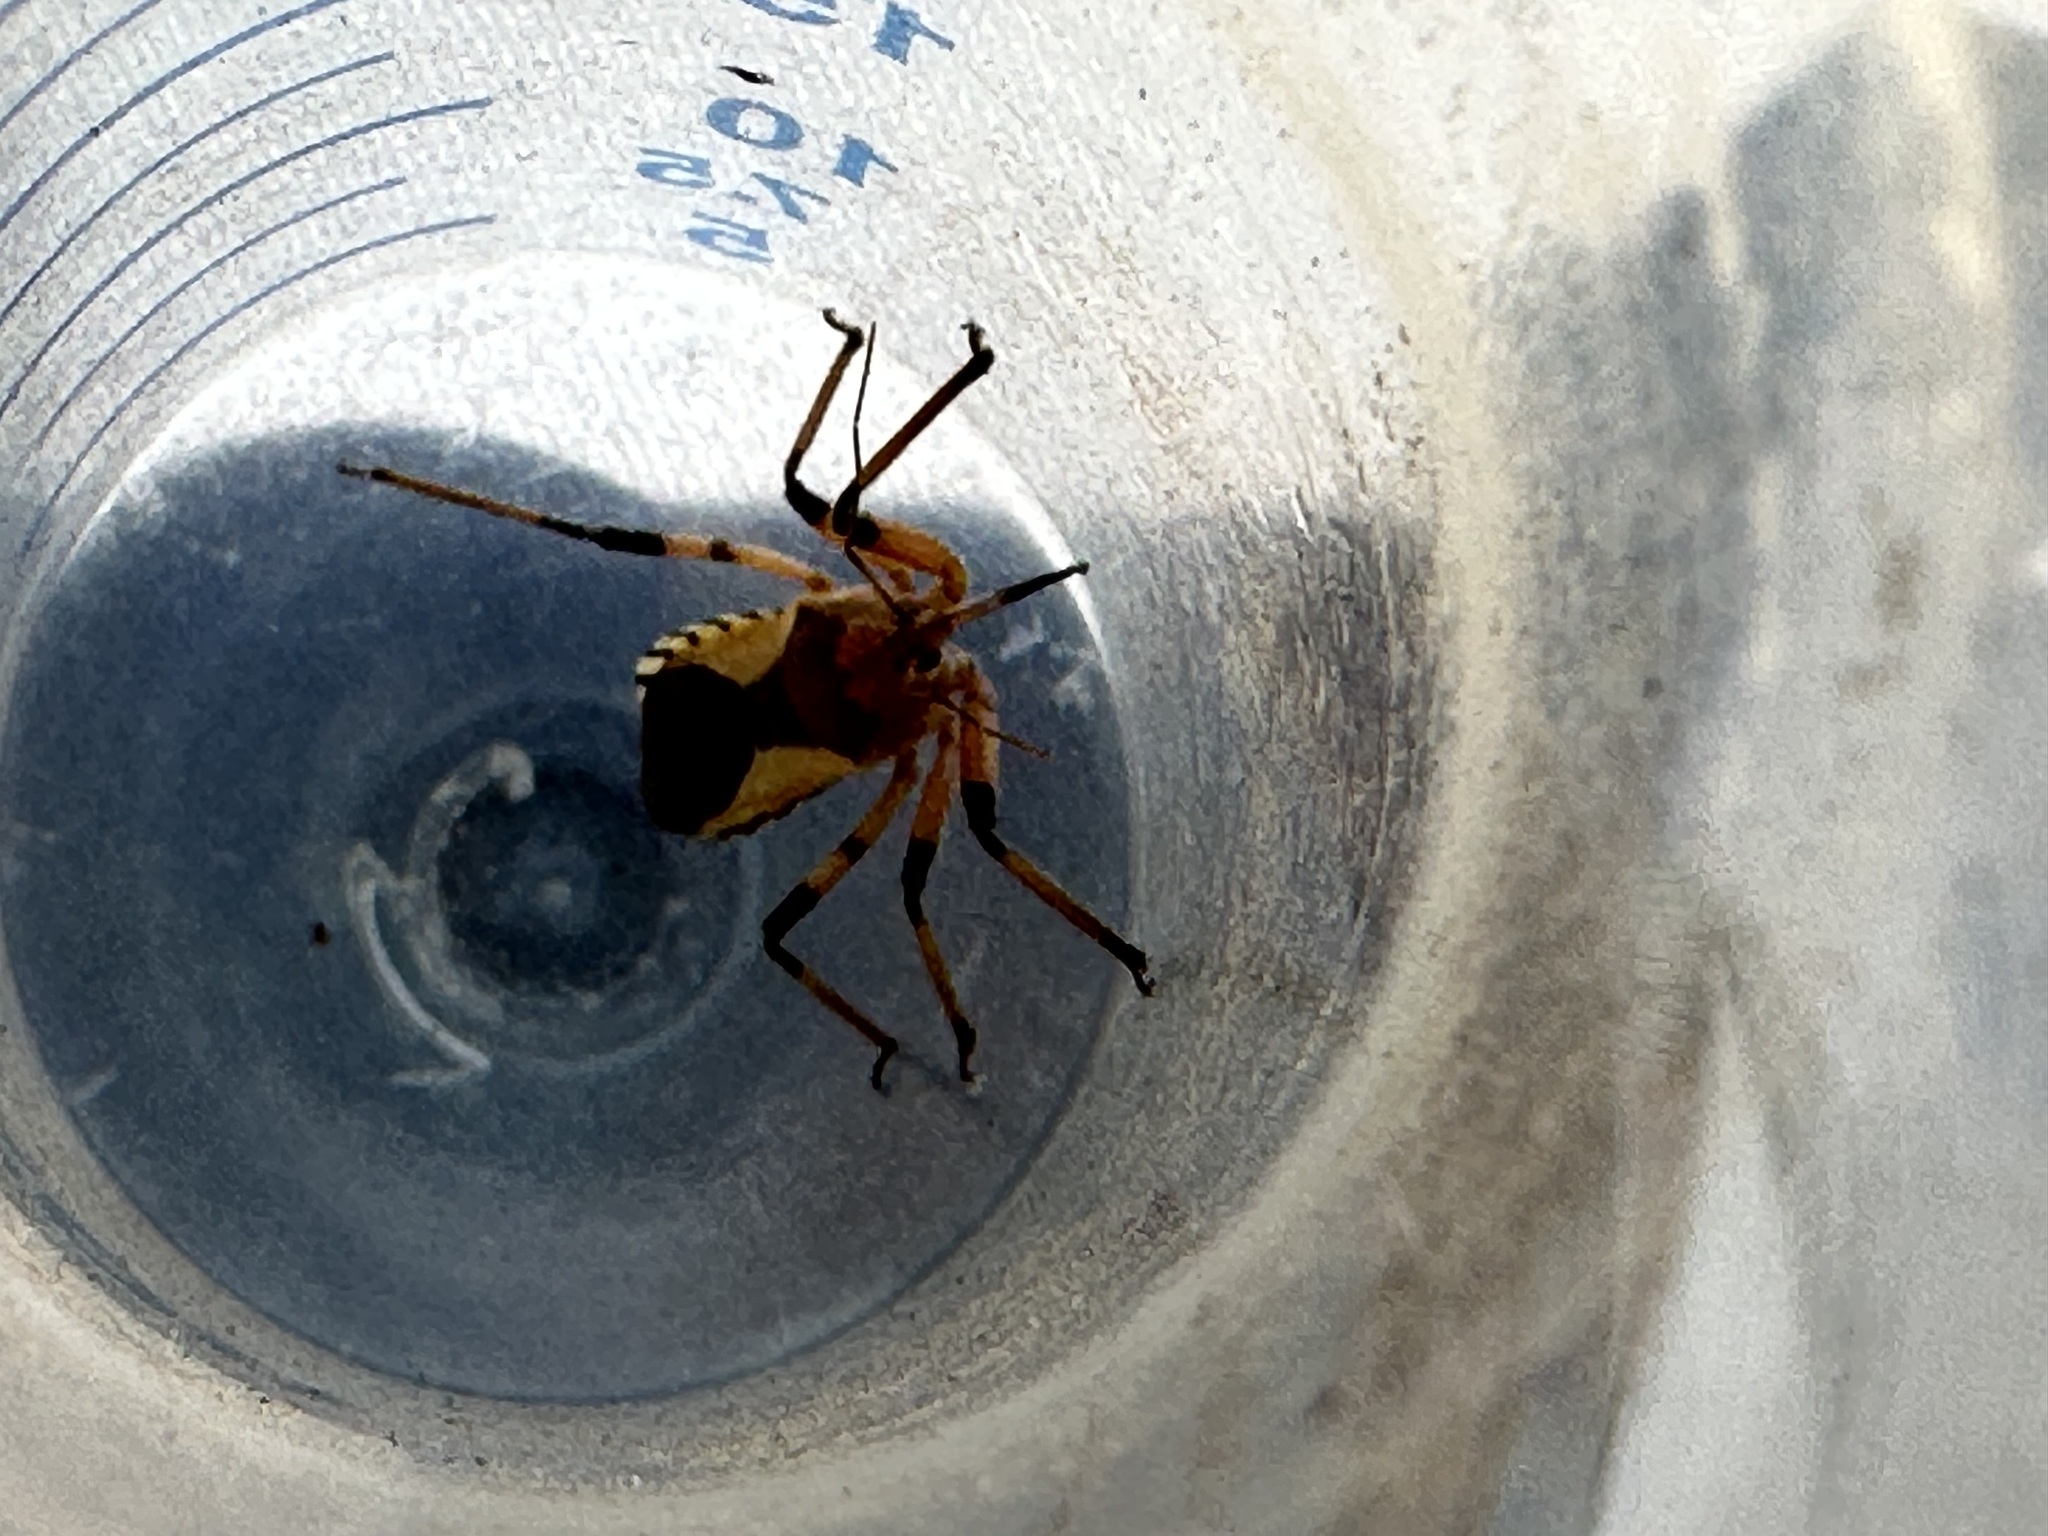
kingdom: Animalia
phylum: Arthropoda
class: Insecta
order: Hemiptera
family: Reduviidae
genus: Rhynocoris
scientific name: Rhynocoris ventralis
